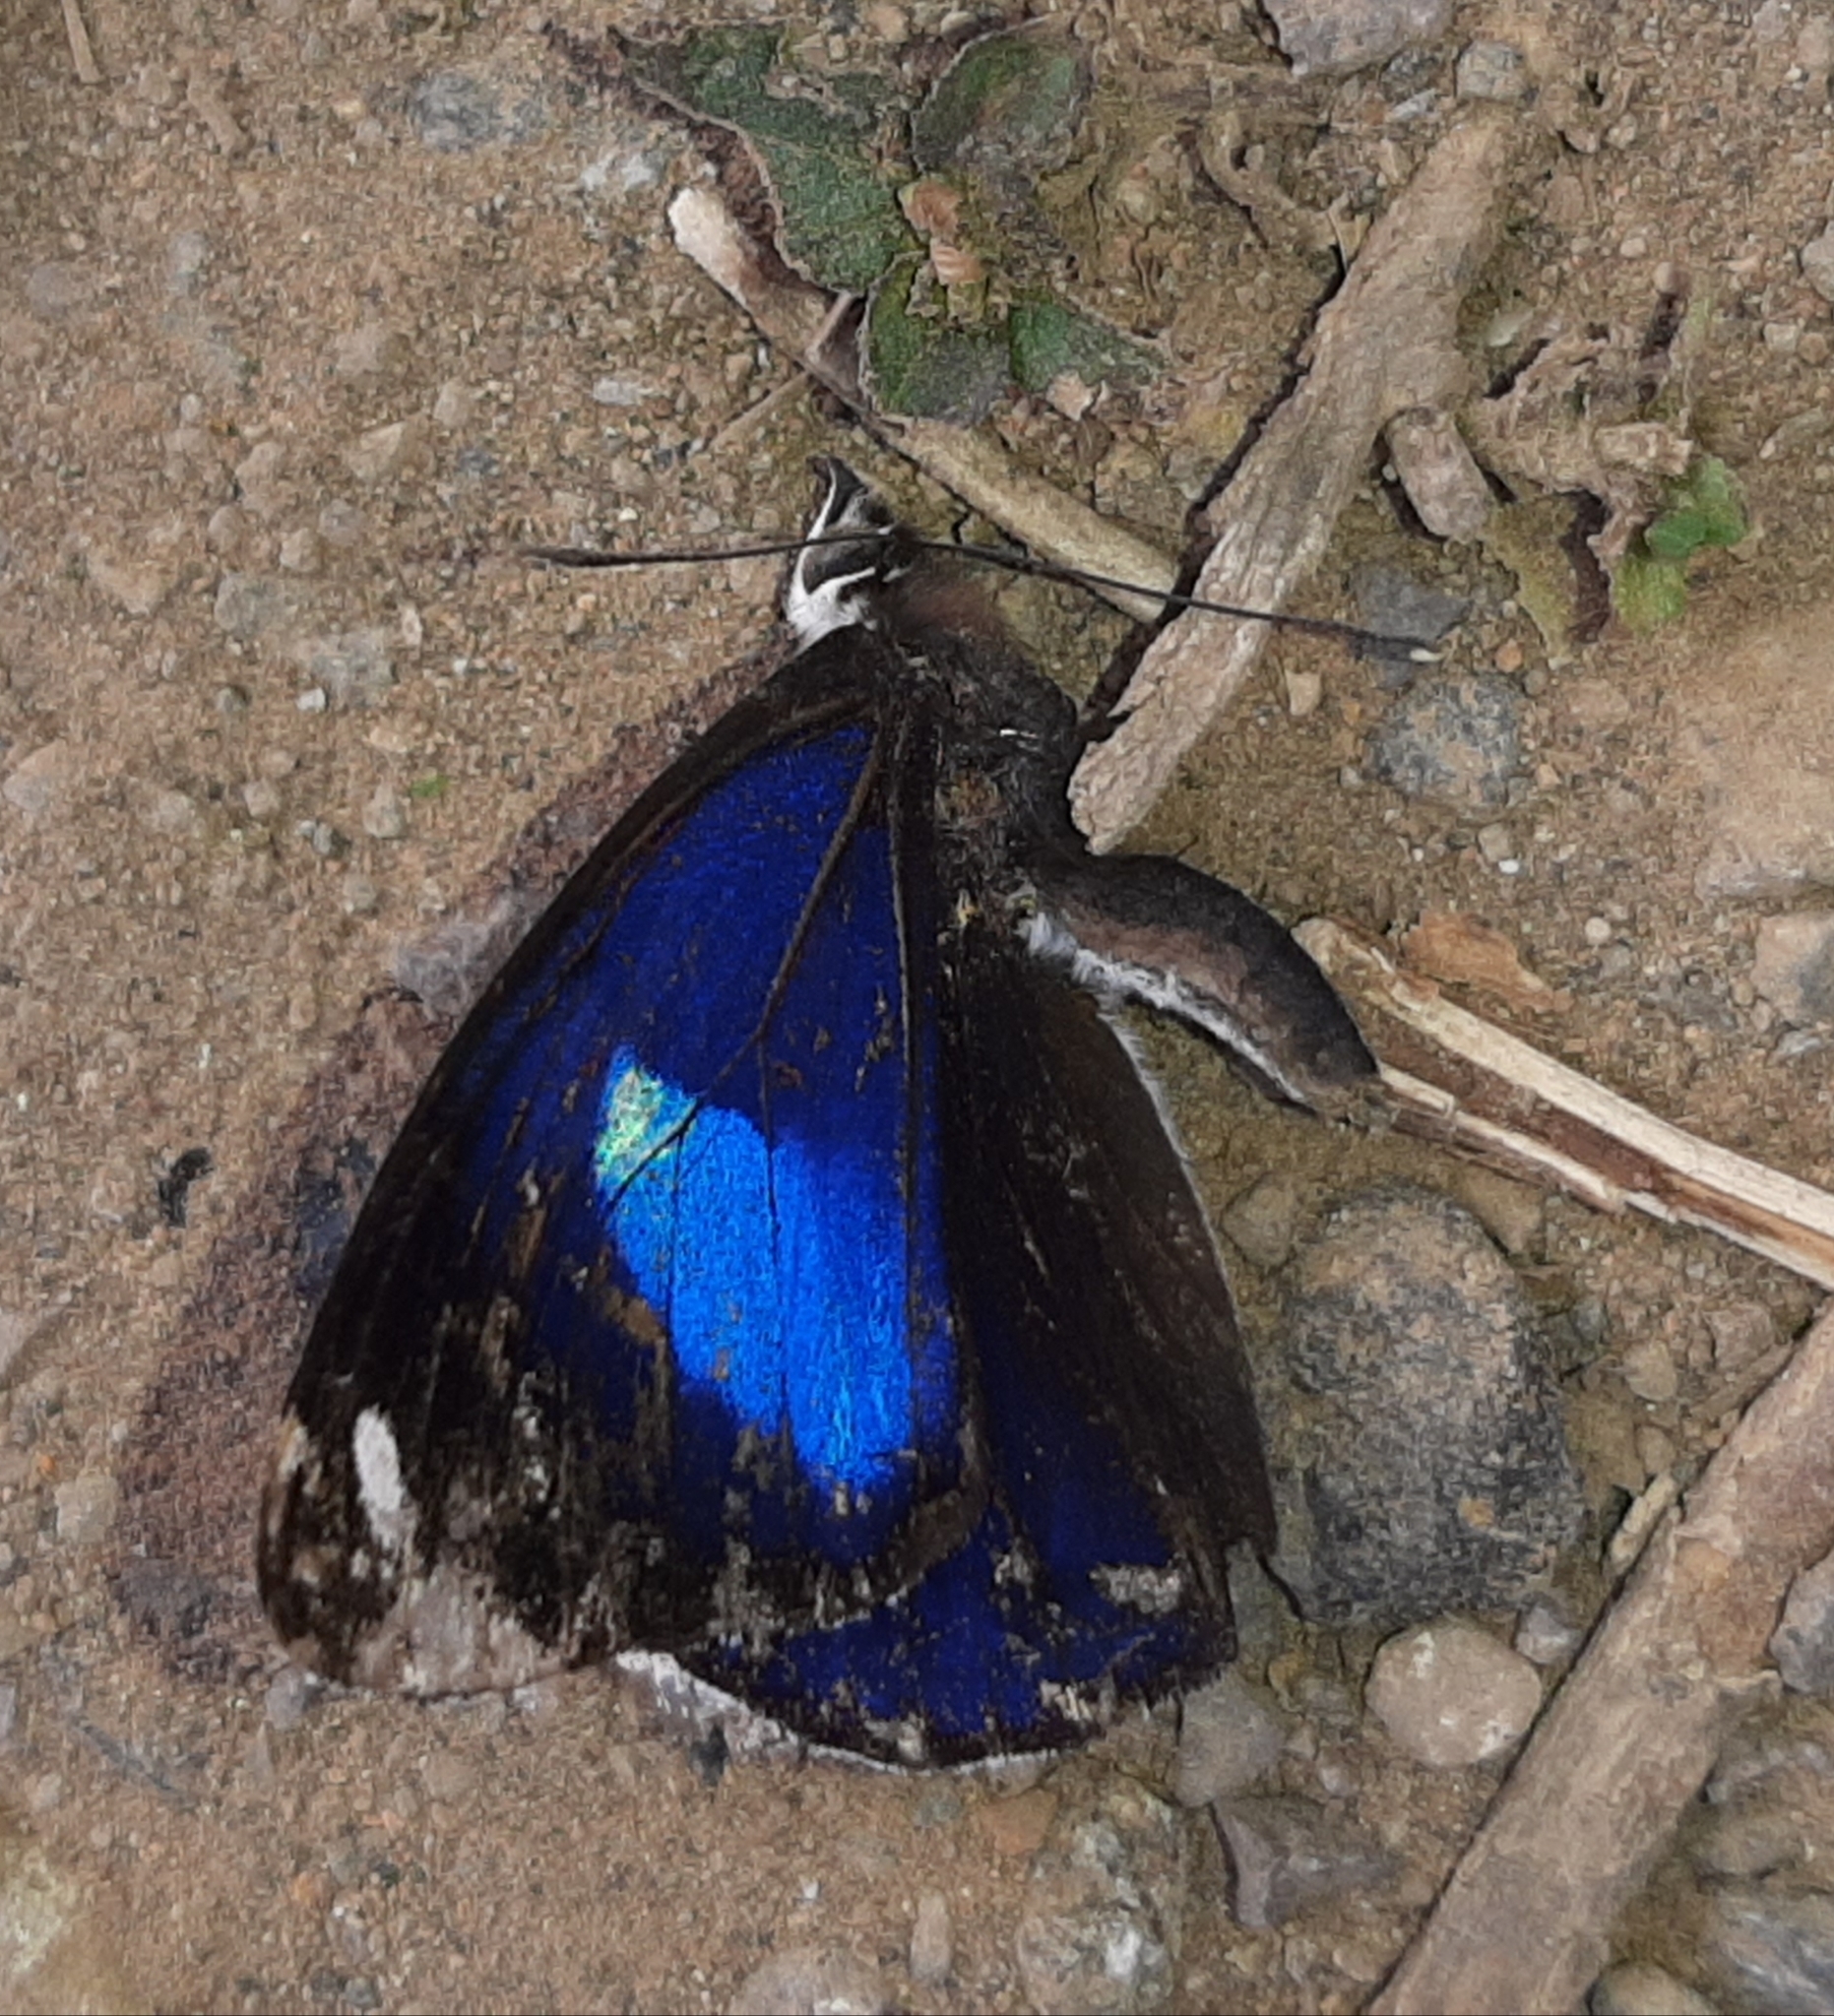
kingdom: Animalia
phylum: Arthropoda
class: Insecta
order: Lepidoptera
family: Nymphalidae
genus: Diaethria
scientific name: Diaethria astala
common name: Navy eighty-eight
